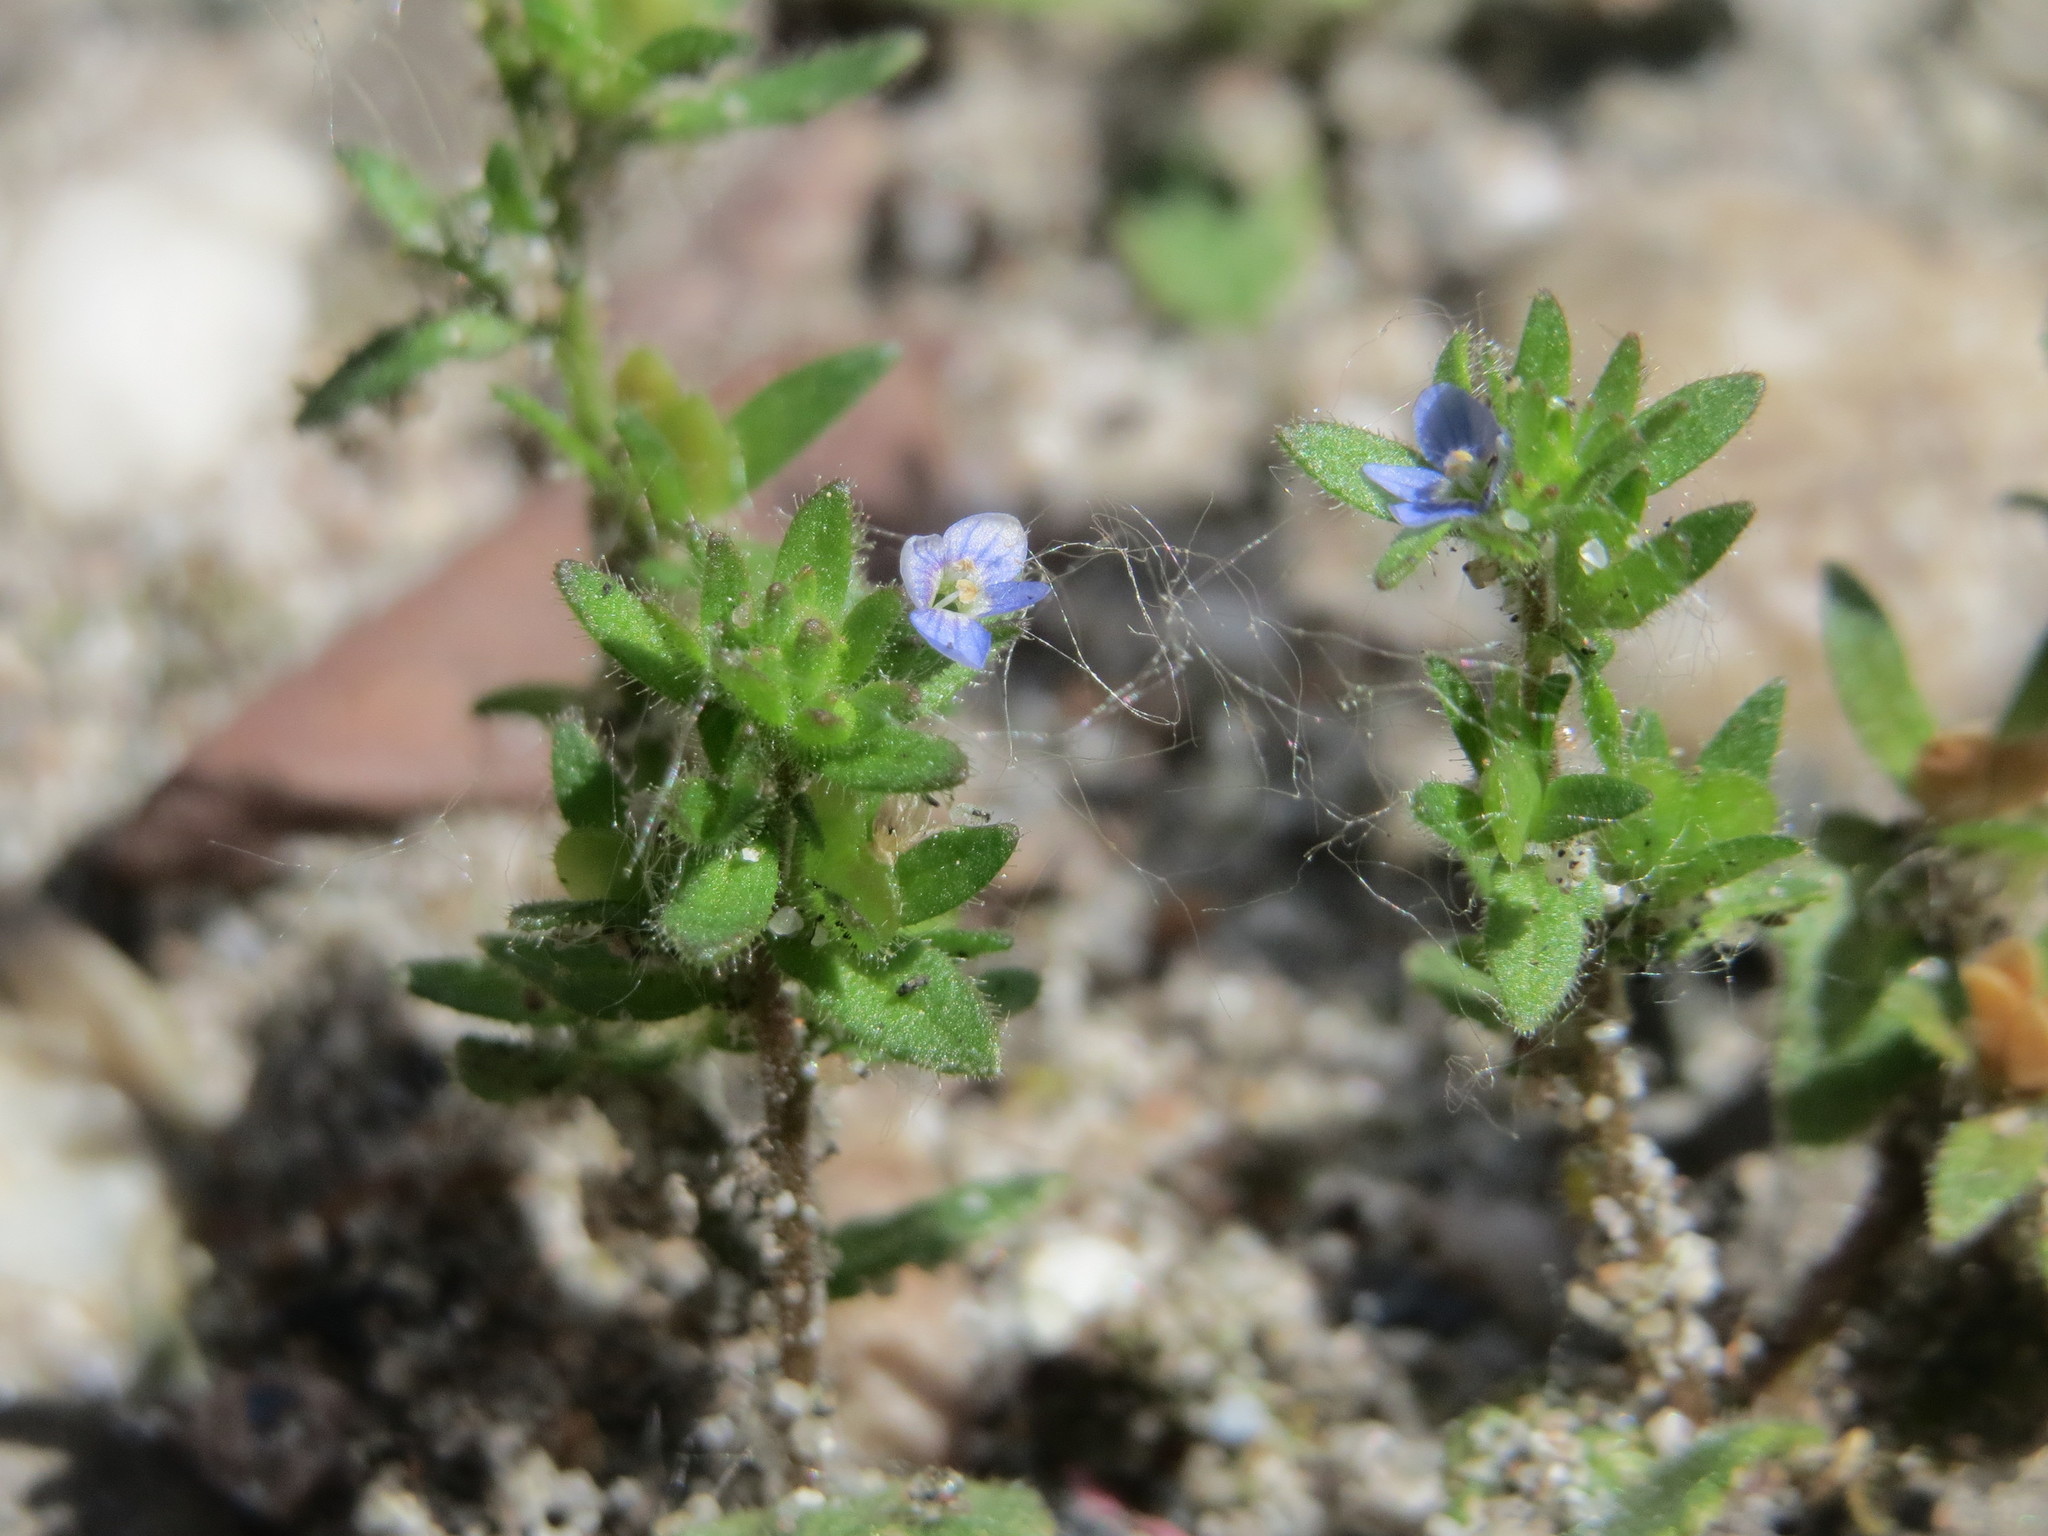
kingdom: Plantae
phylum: Tracheophyta
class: Magnoliopsida
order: Lamiales
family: Plantaginaceae
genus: Veronica
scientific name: Veronica arvensis
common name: Corn speedwell
